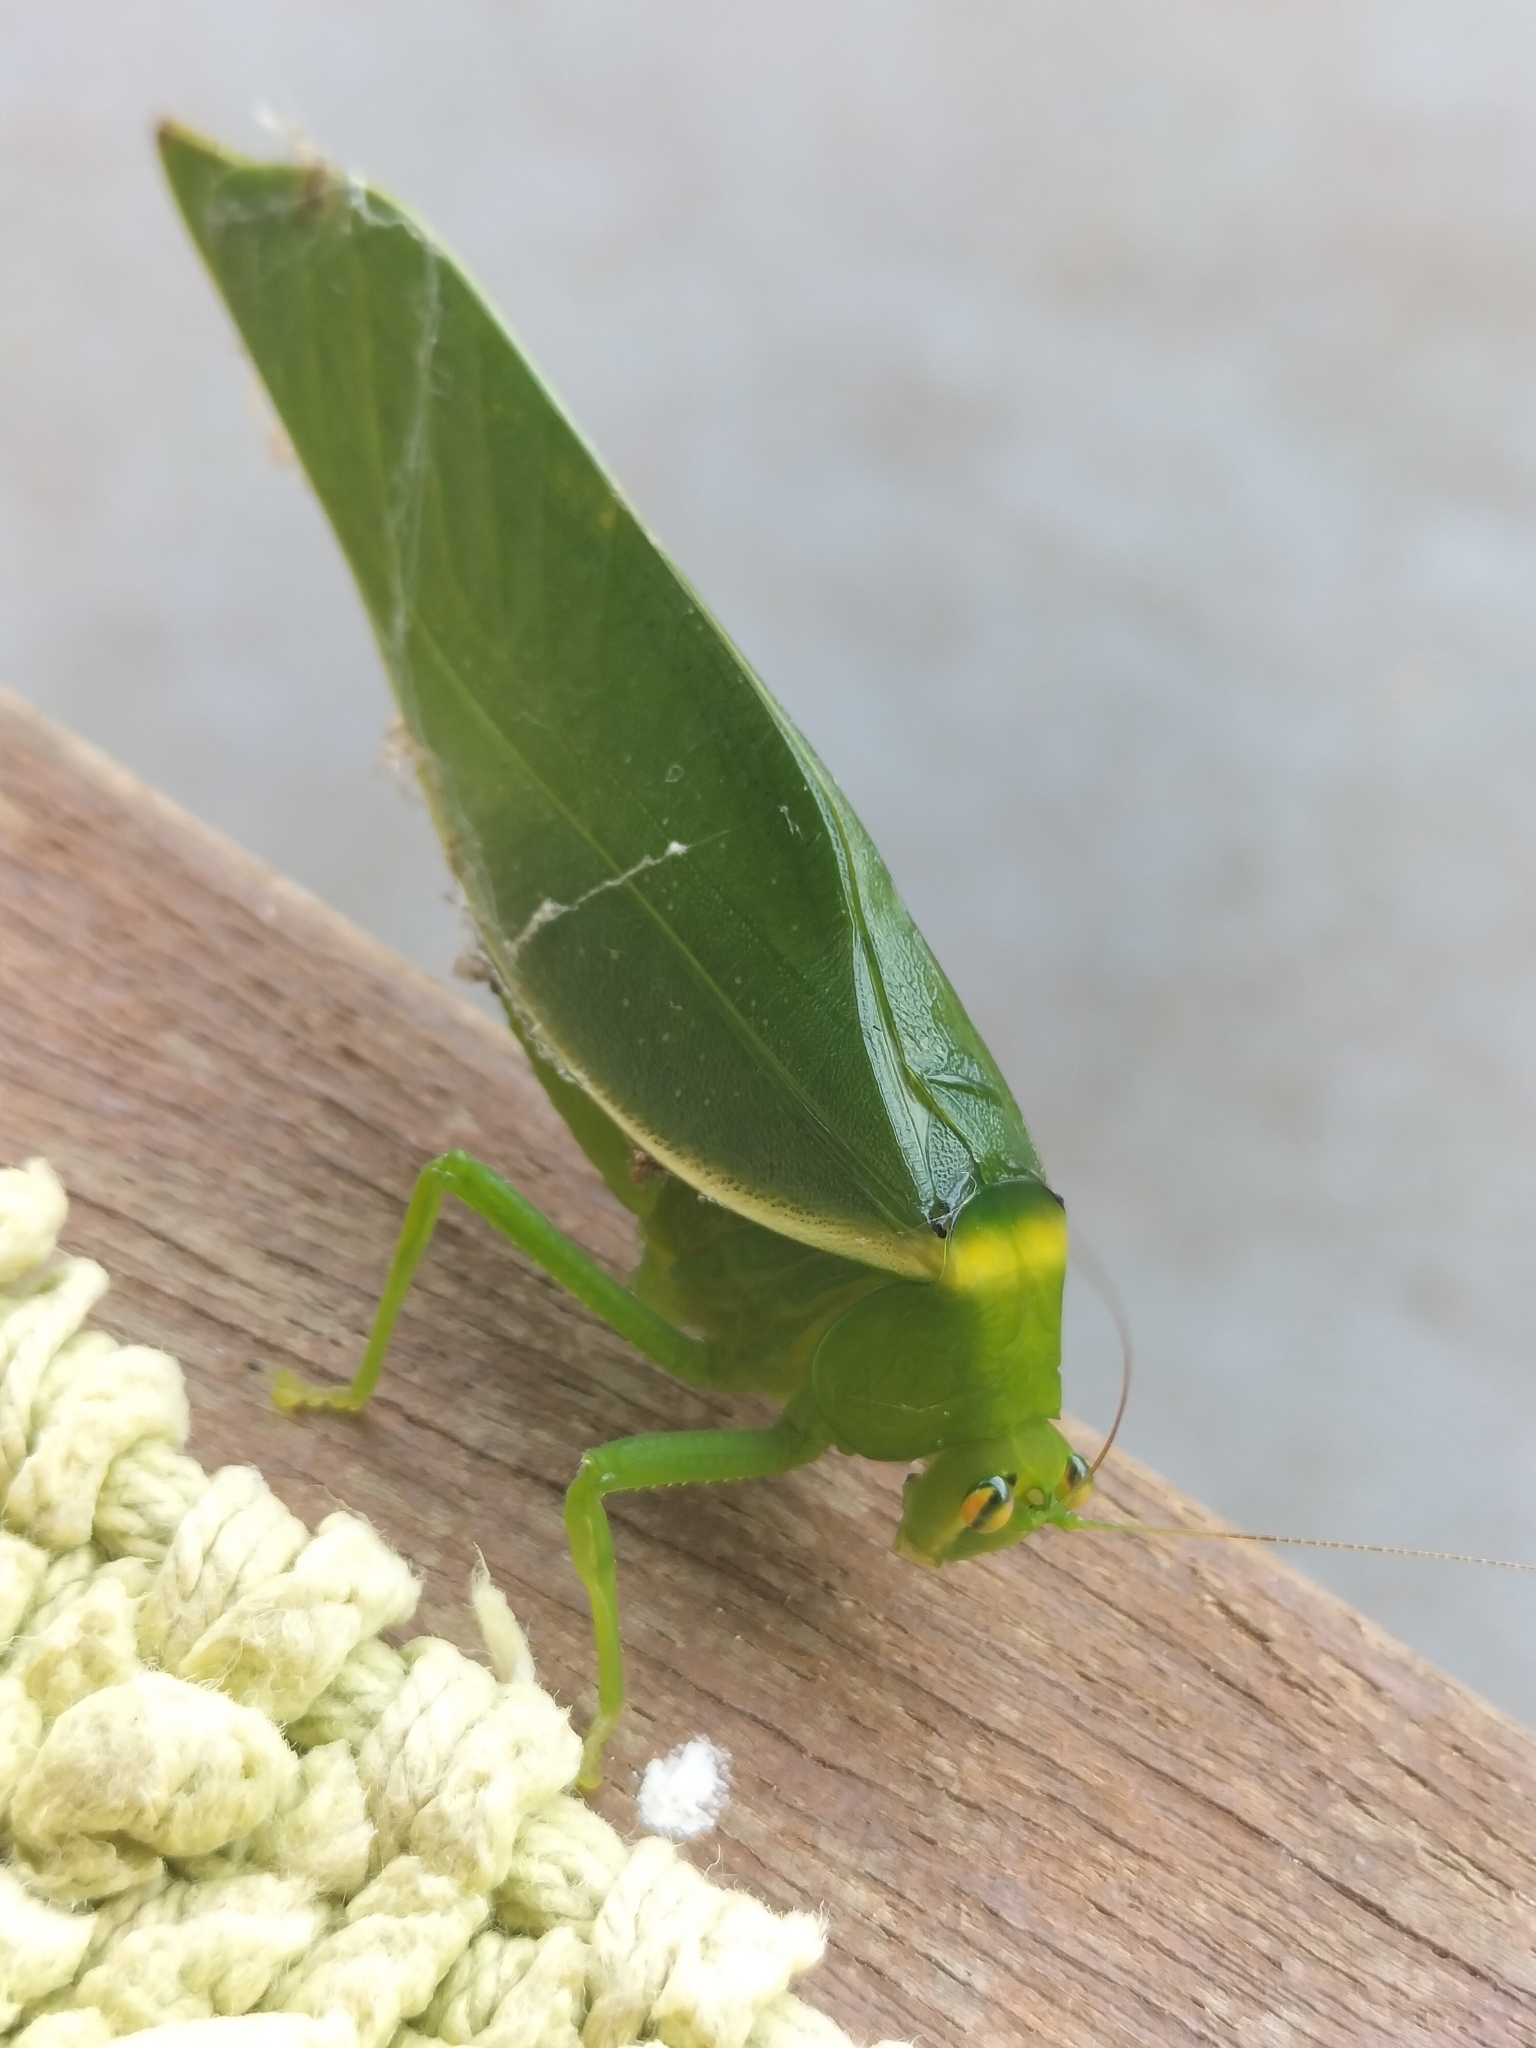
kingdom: Animalia
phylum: Arthropoda
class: Insecta
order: Orthoptera
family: Tettigoniidae
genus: Paracaedicia
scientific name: Paracaedicia serrata
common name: Serrated bush katydid
